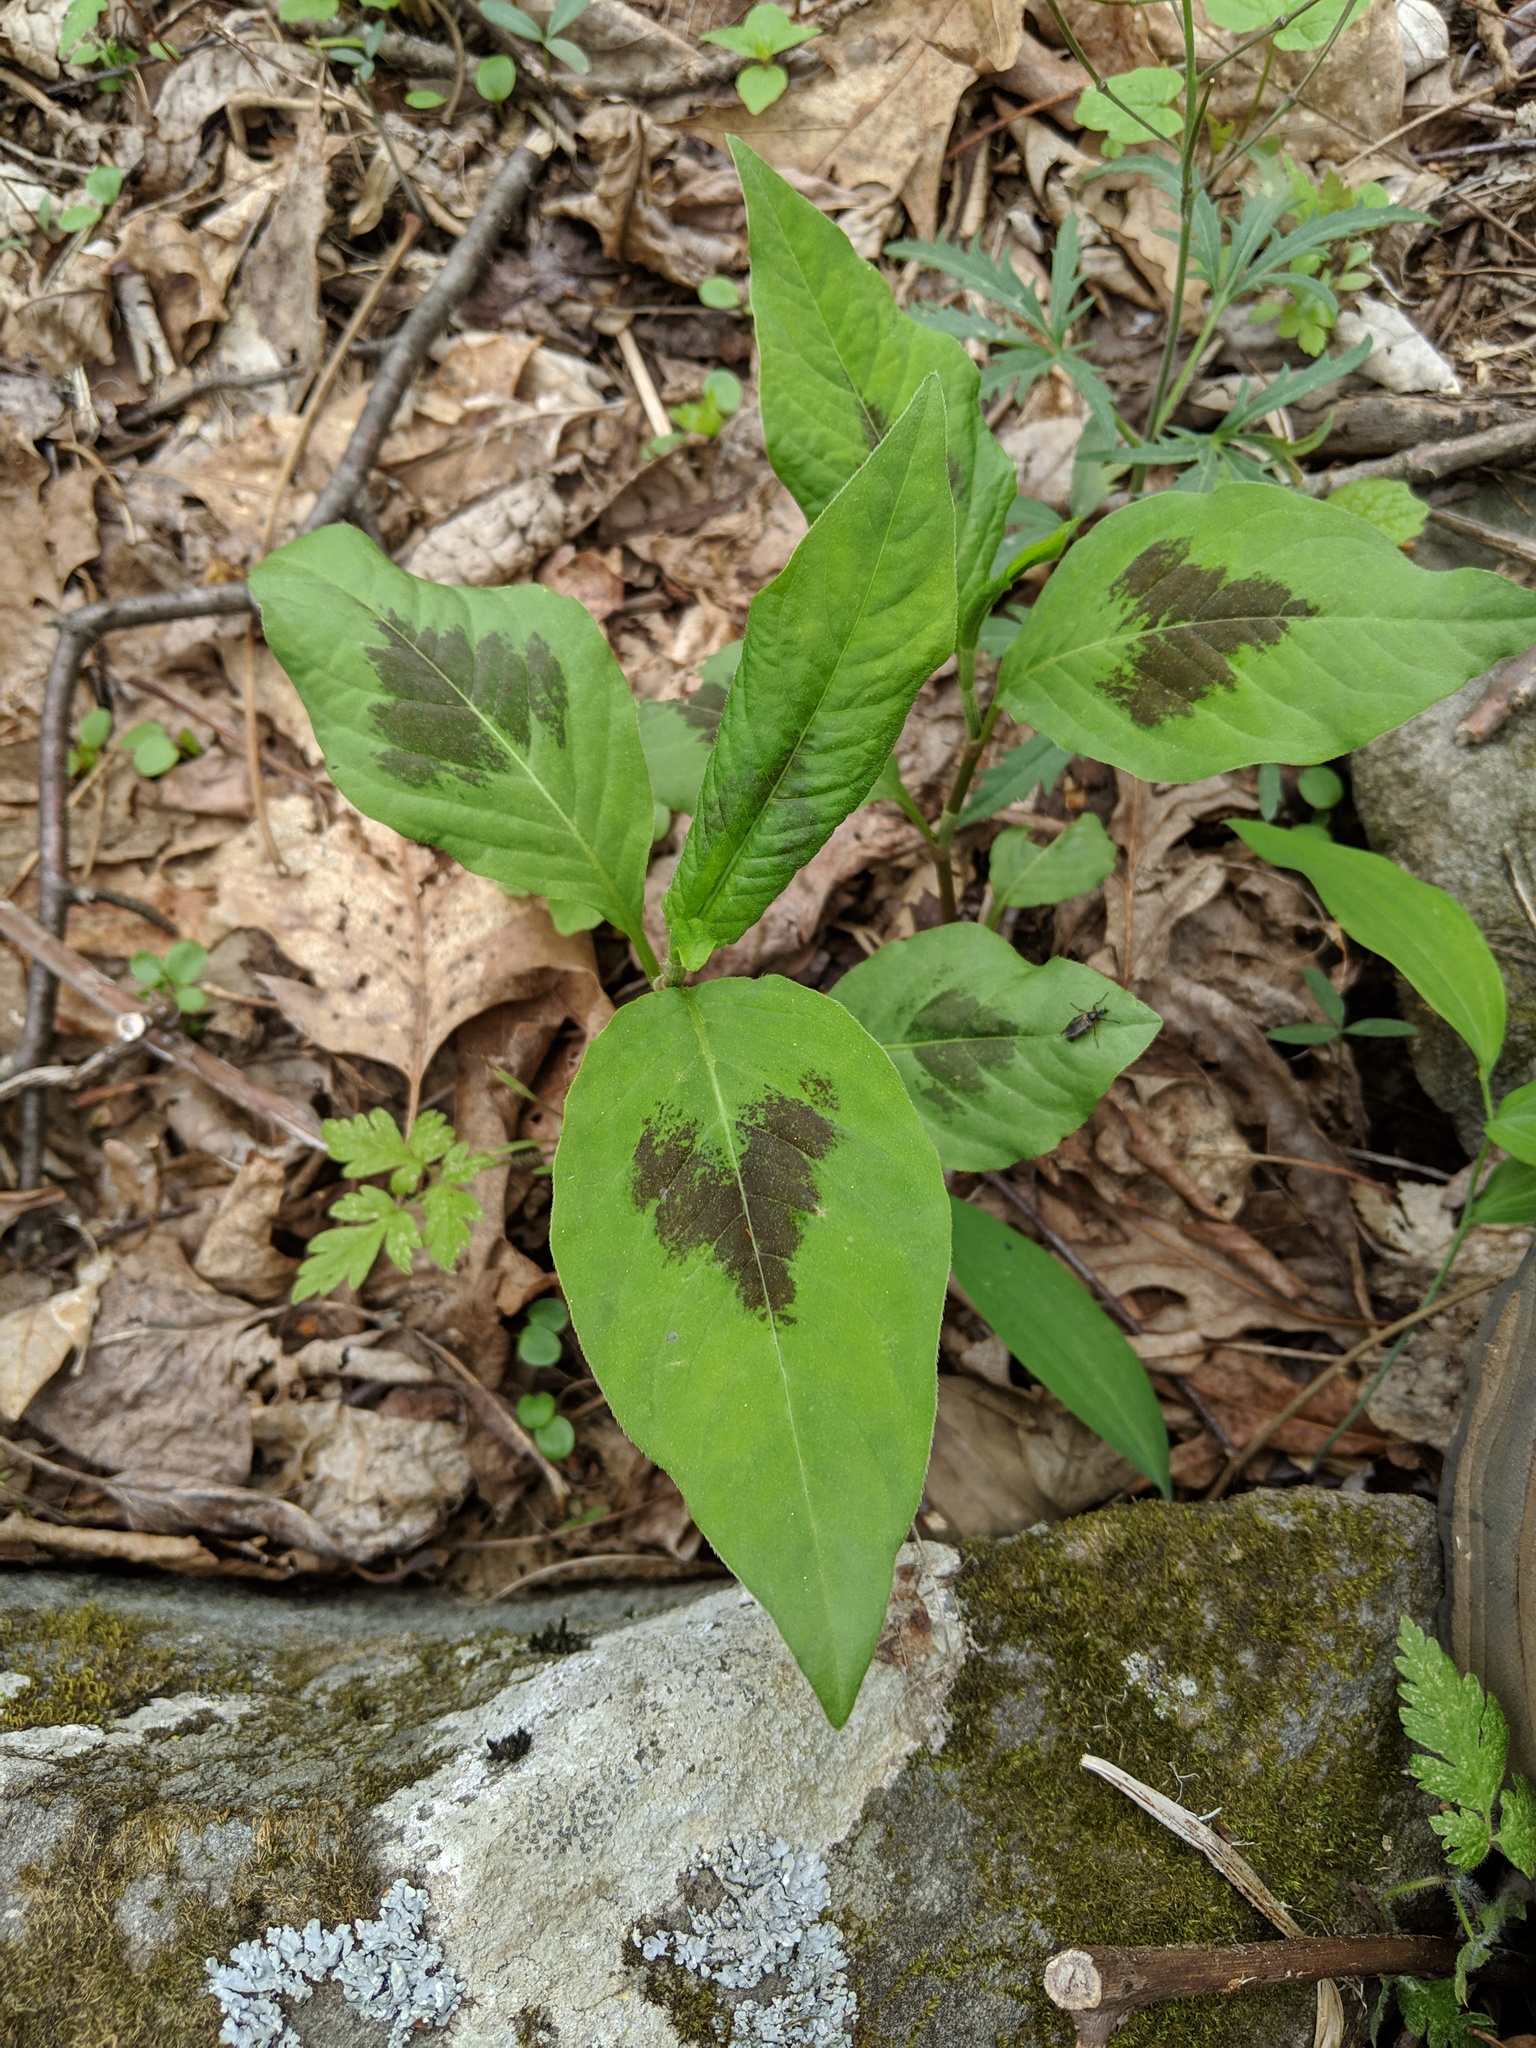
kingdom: Plantae
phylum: Tracheophyta
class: Magnoliopsida
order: Caryophyllales
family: Polygonaceae
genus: Persicaria
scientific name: Persicaria virginiana
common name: Jumpseed
